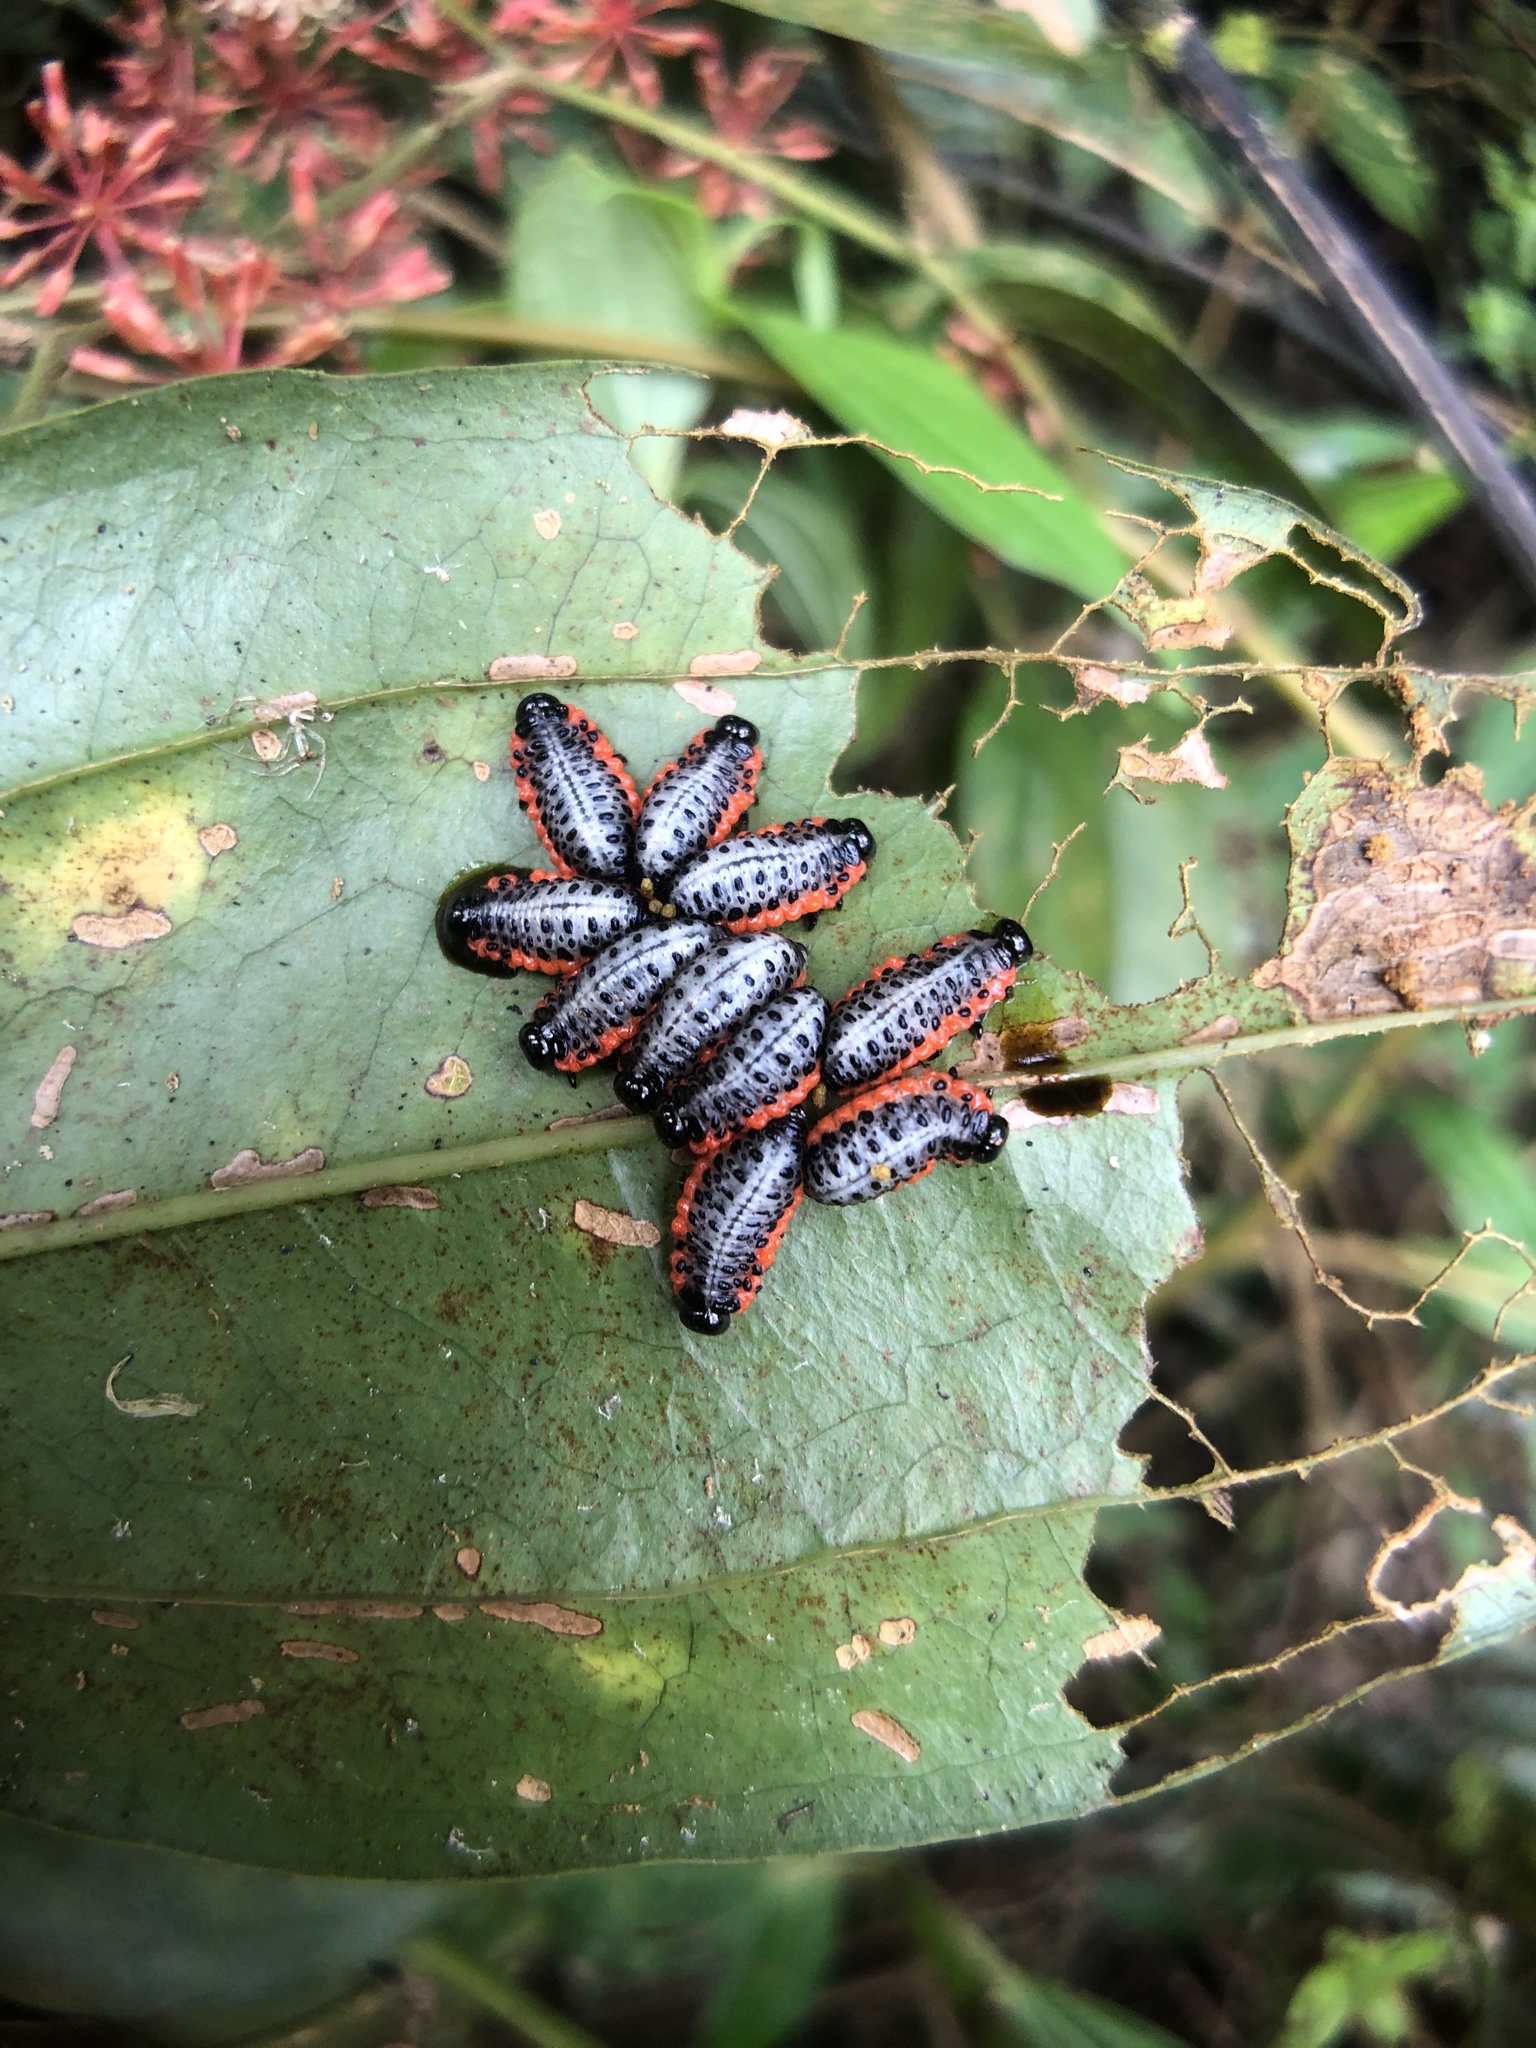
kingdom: Animalia
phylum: Arthropoda
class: Insecta
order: Coleoptera
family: Chrysomelidae
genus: Lilioceris
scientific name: Lilioceris nigropectoralis
